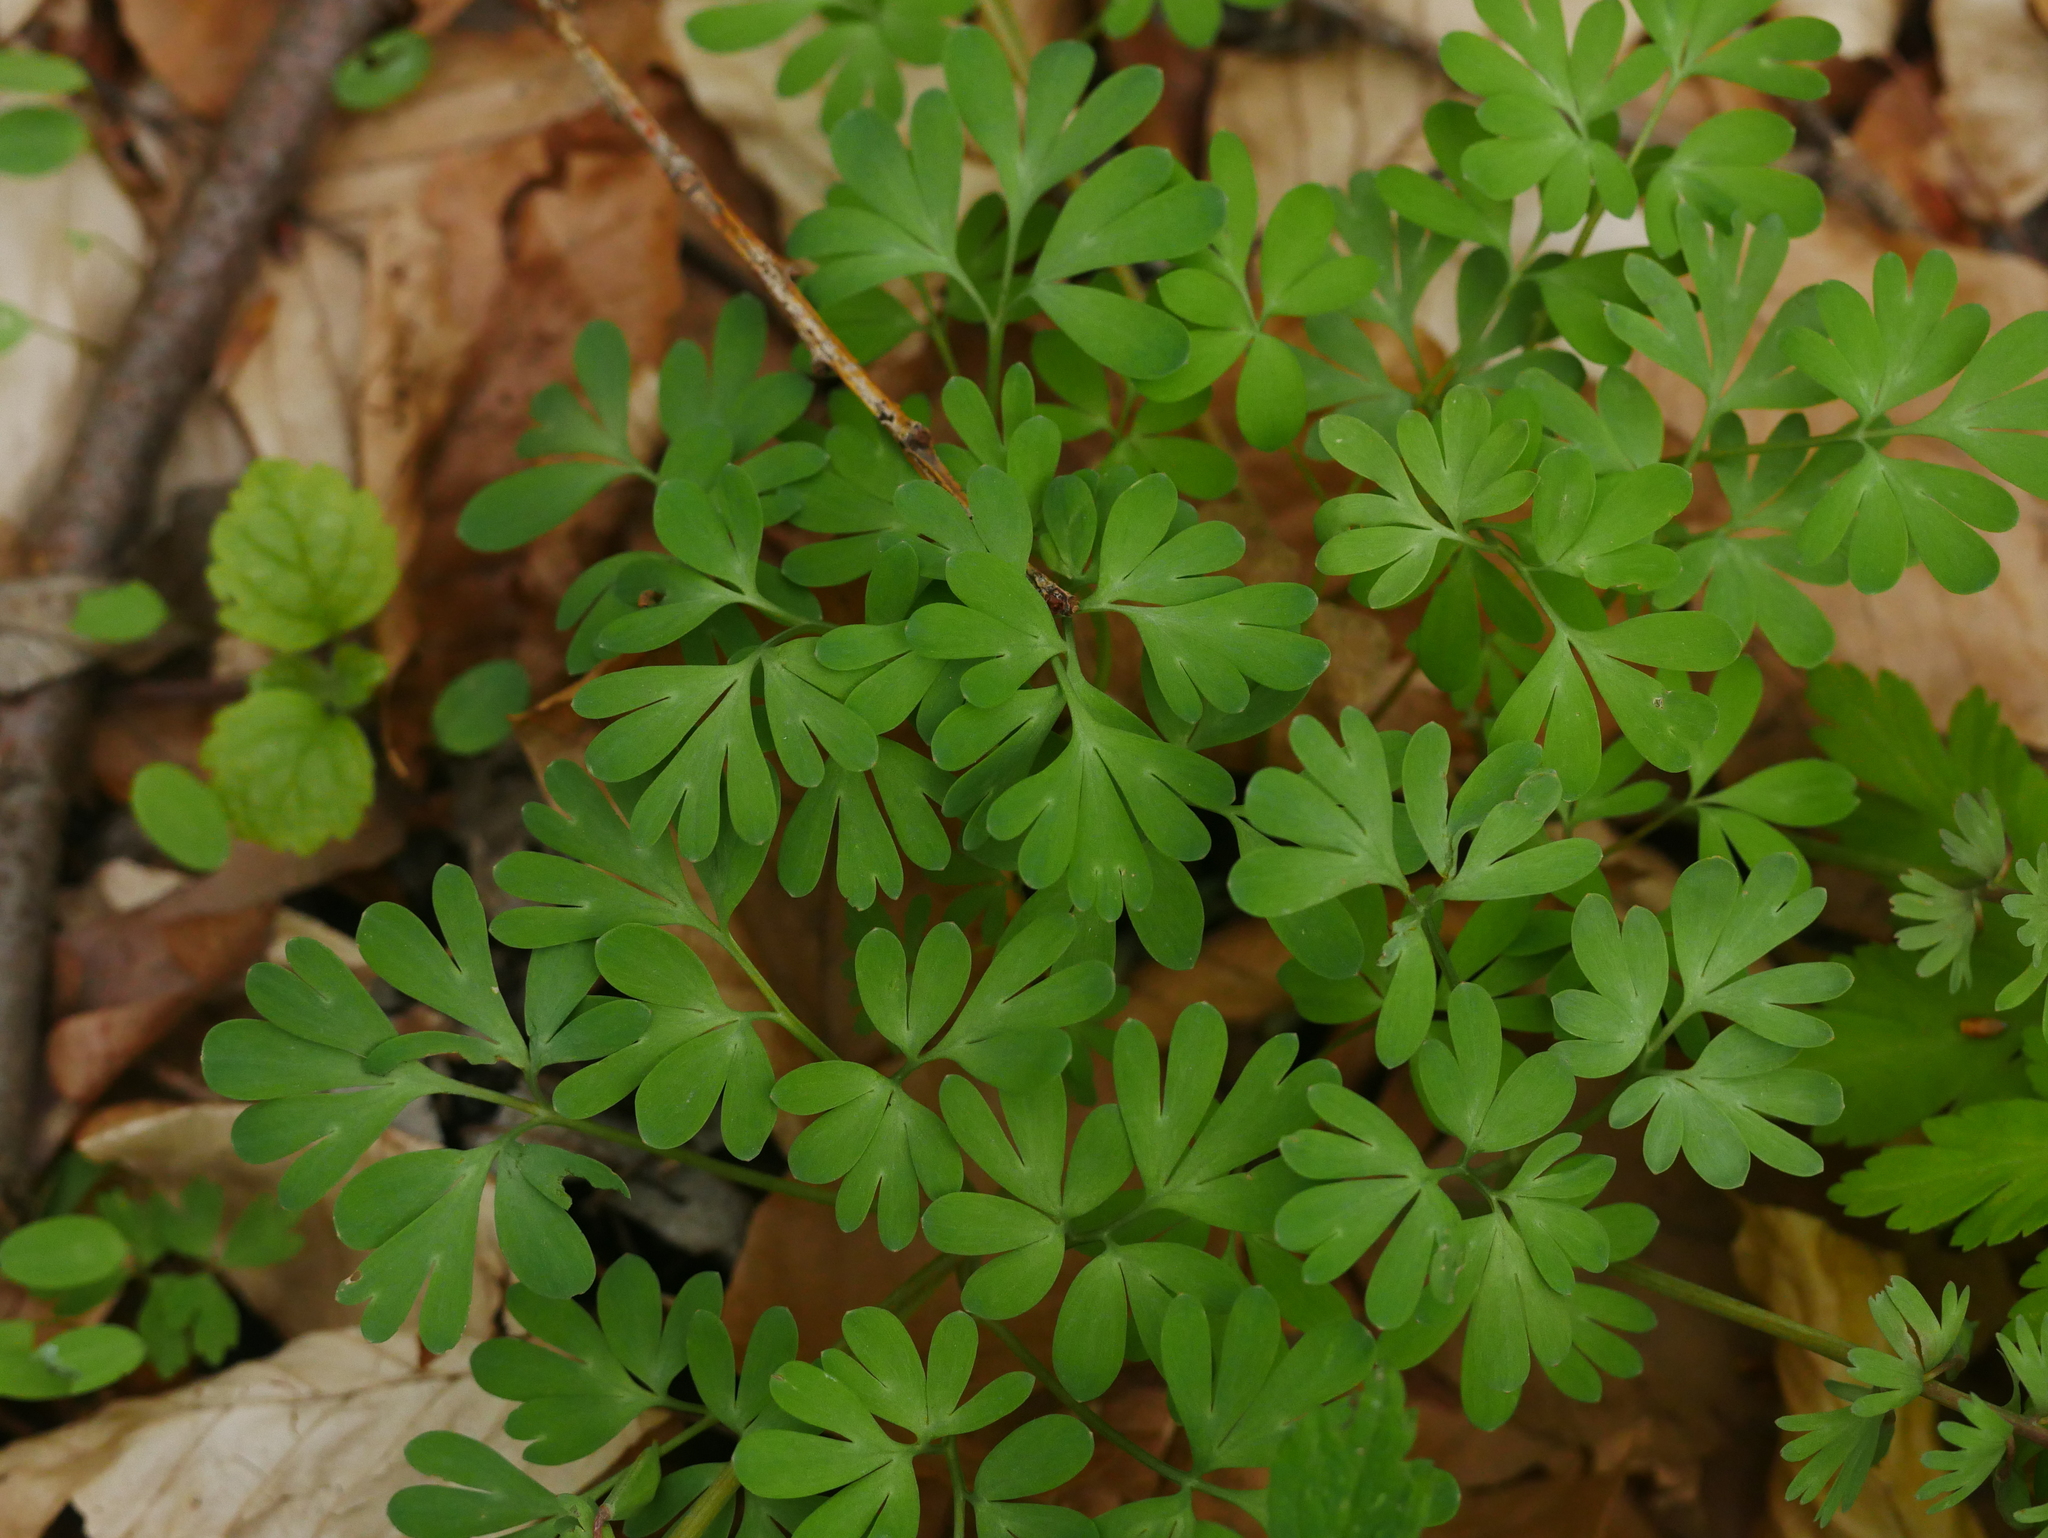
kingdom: Plantae
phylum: Tracheophyta
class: Magnoliopsida
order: Ranunculales
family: Papaveraceae
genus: Corydalis
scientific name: Corydalis solida
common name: Bird-in-a-bush
